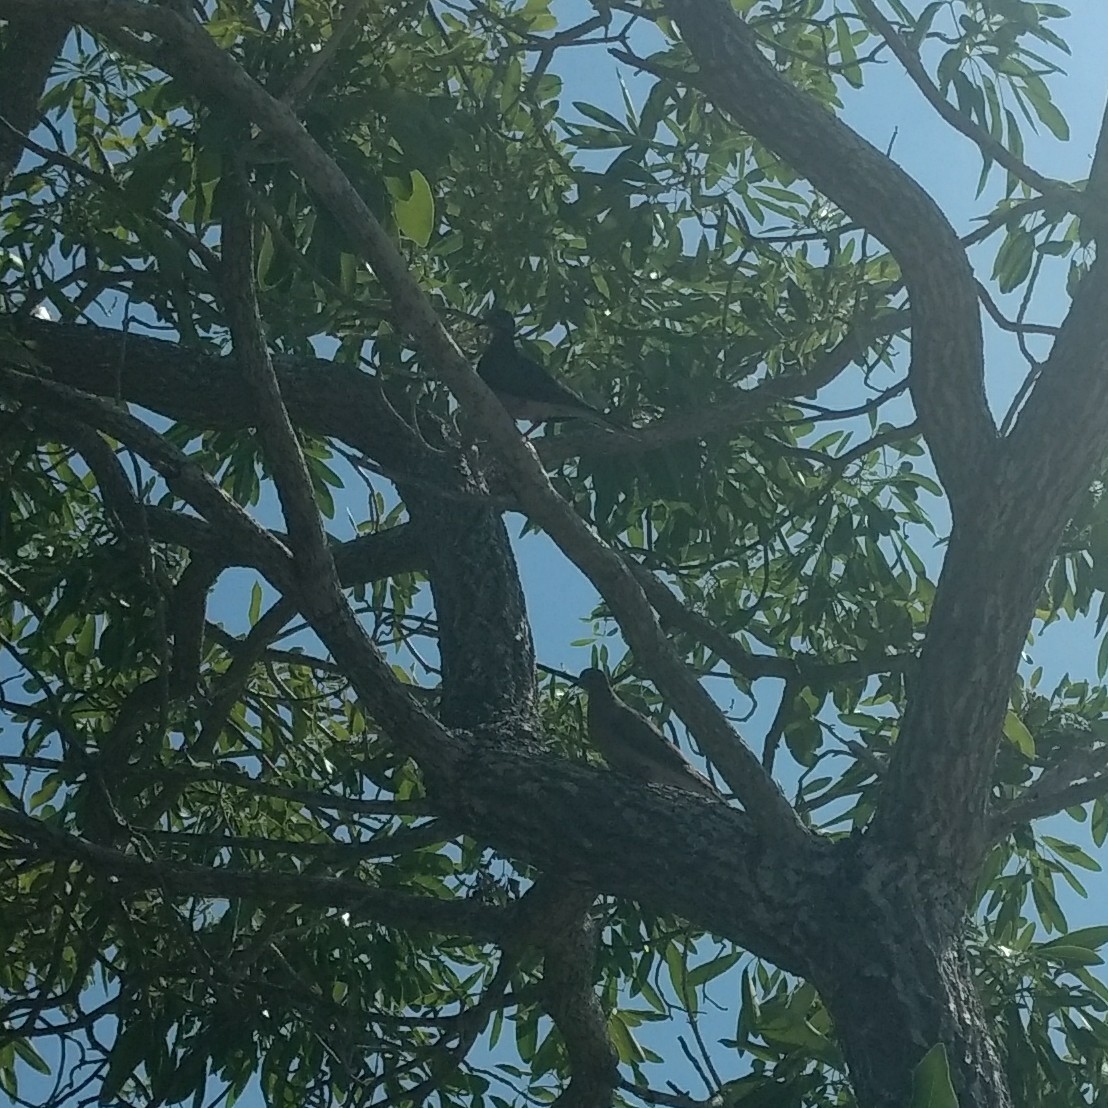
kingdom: Animalia
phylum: Chordata
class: Aves
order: Columbiformes
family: Columbidae
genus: Zenaida
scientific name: Zenaida macroura
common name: Mourning dove
